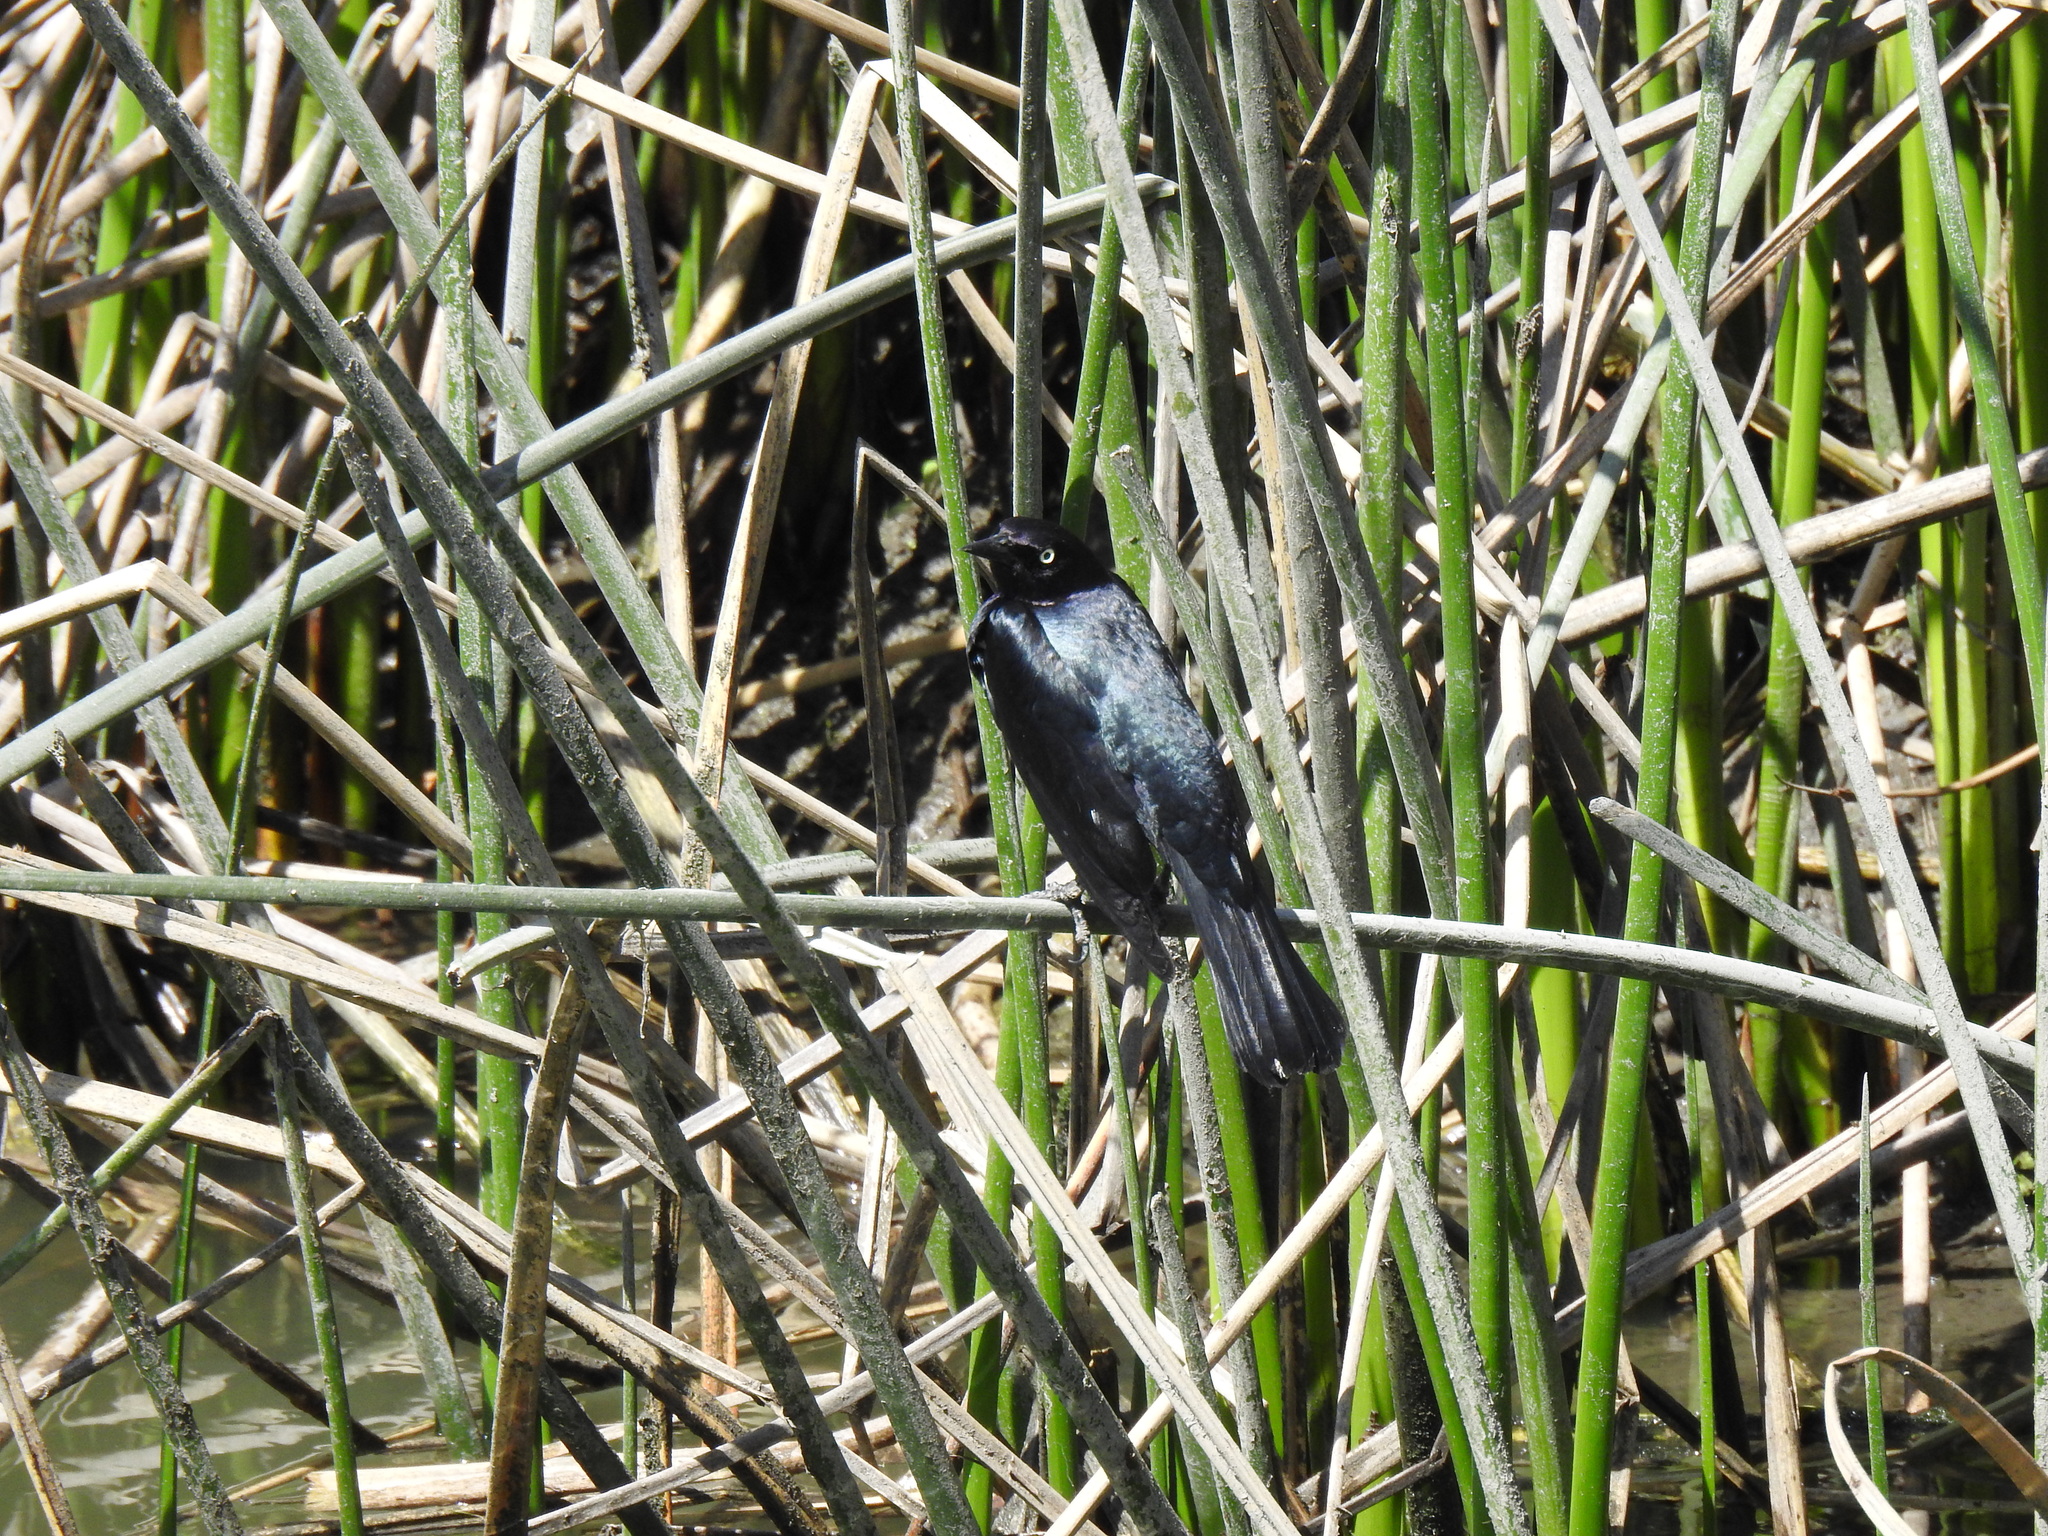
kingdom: Animalia
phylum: Chordata
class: Aves
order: Passeriformes
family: Icteridae
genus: Euphagus
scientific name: Euphagus cyanocephalus
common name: Brewer's blackbird
